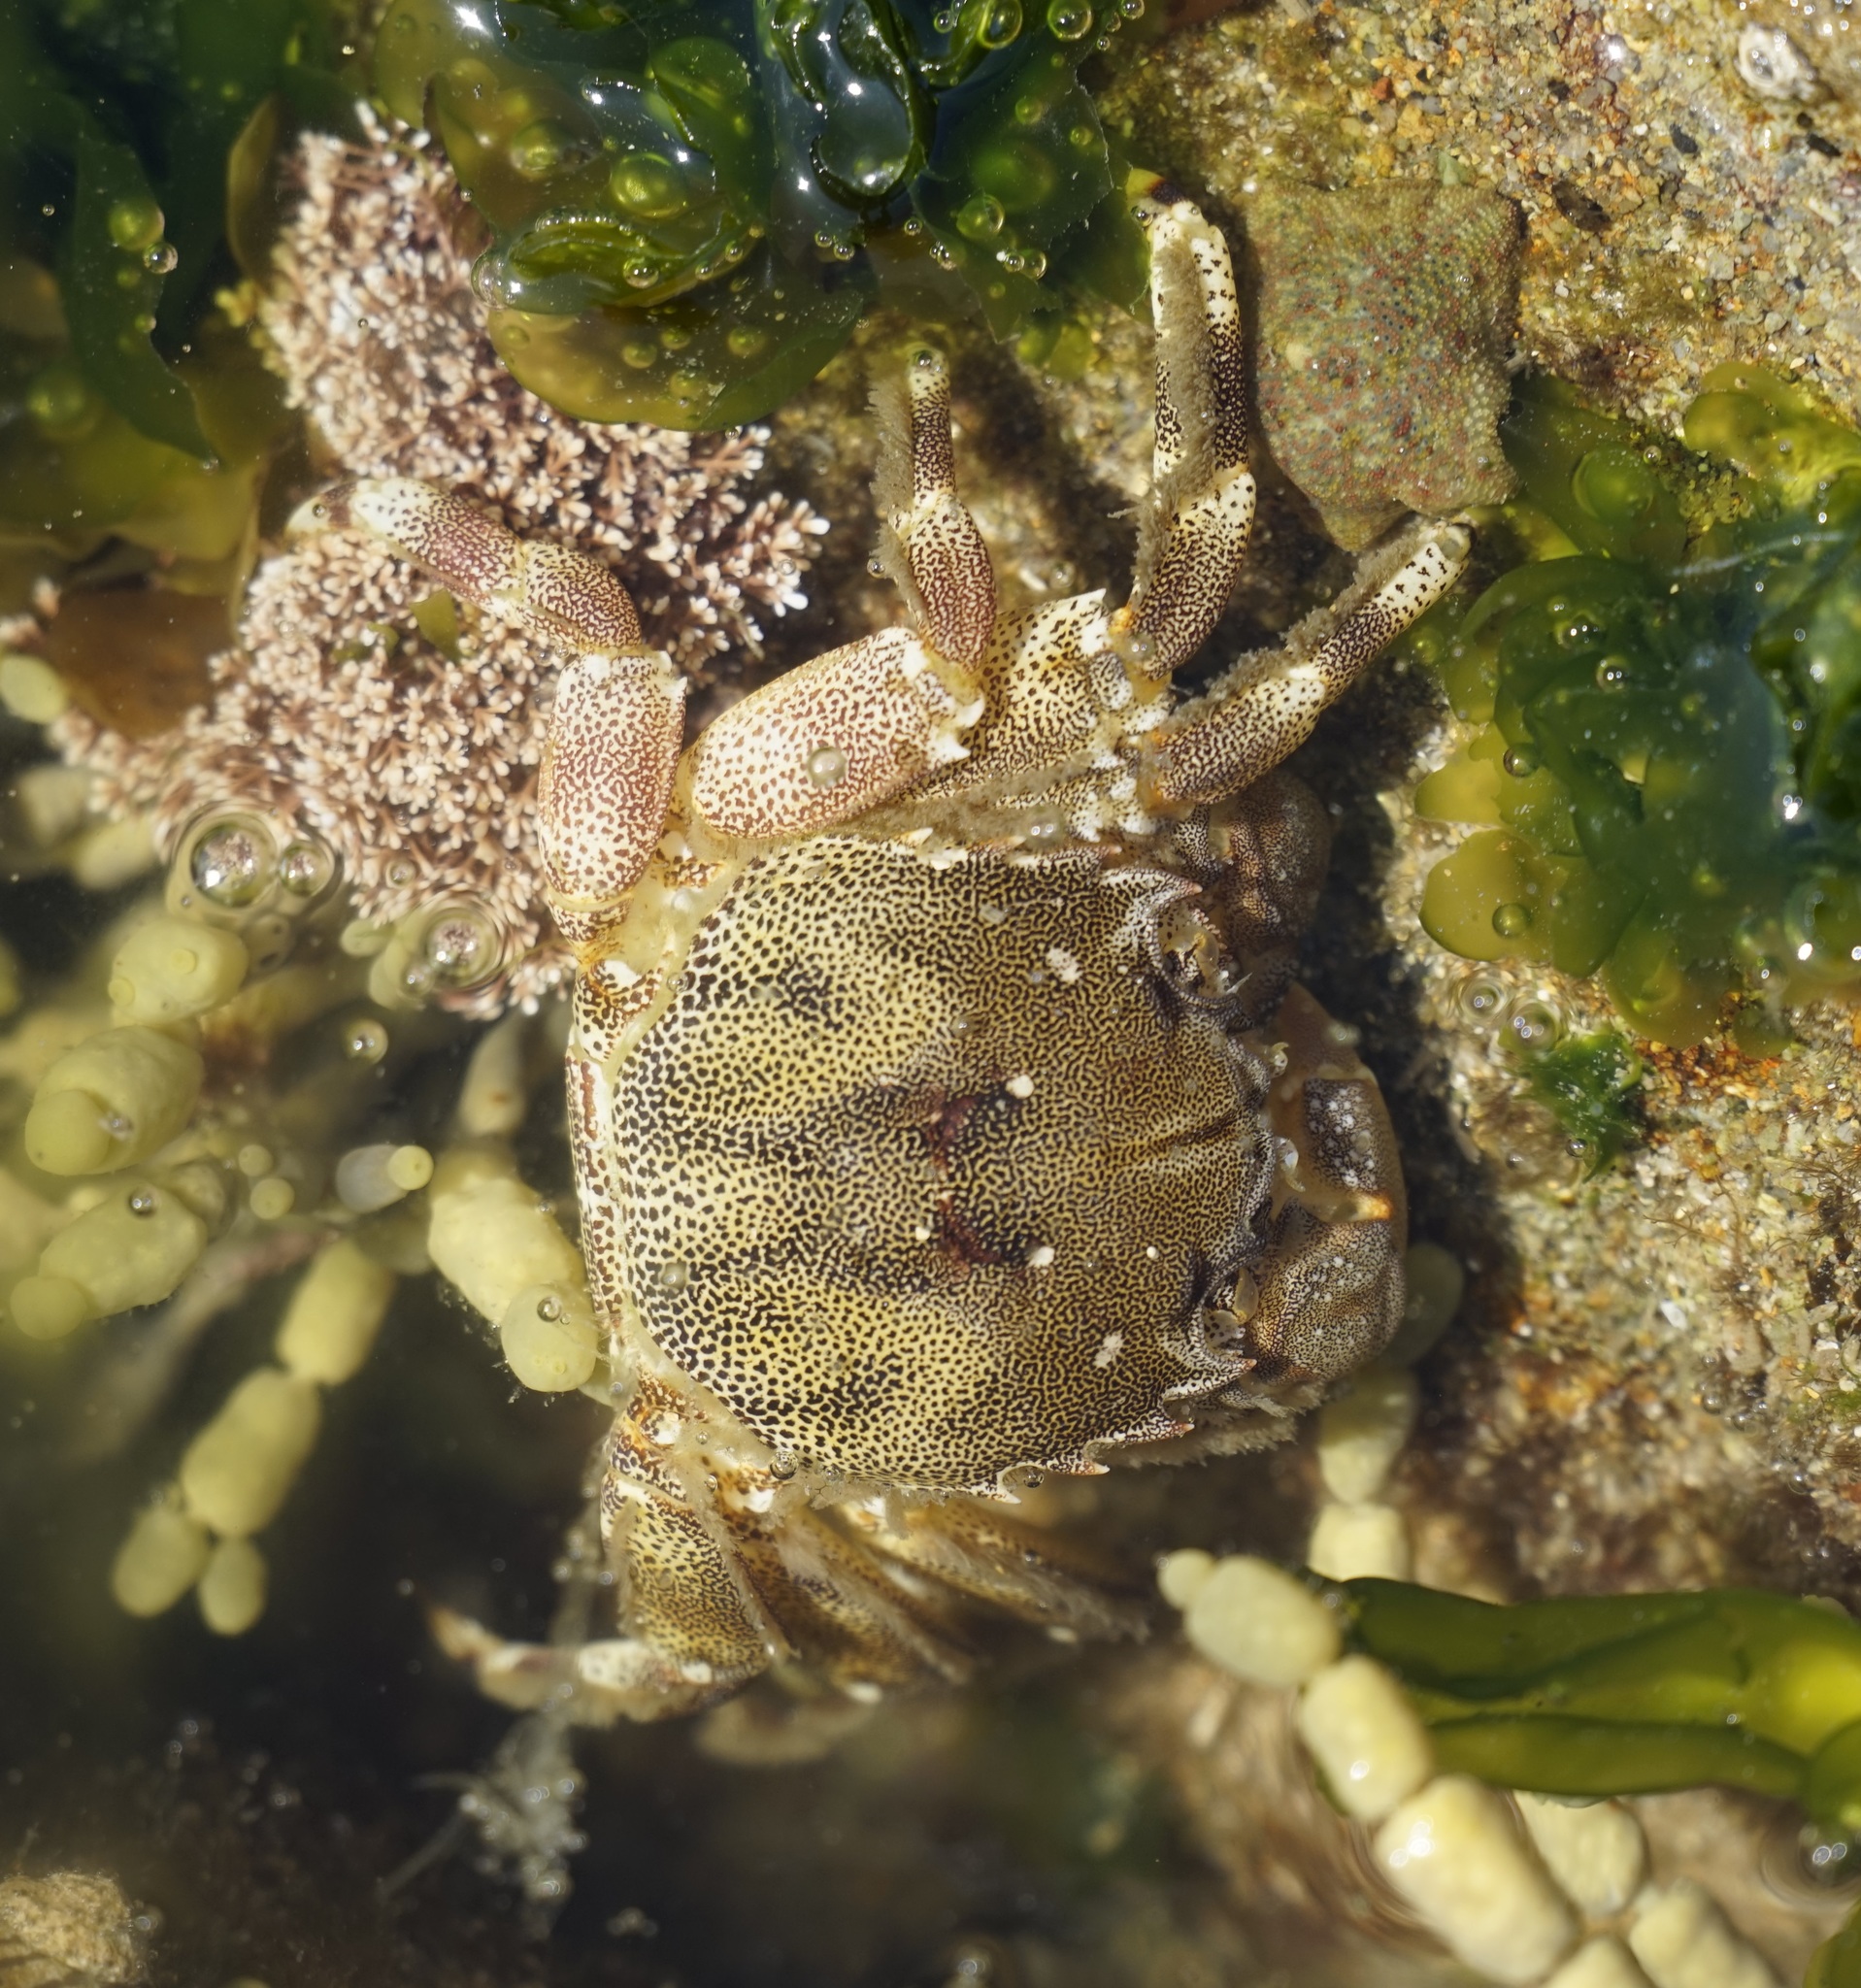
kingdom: Animalia
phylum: Arthropoda
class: Malacostraca
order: Decapoda
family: Plagusiidae
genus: Davusia
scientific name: Davusia glabra
